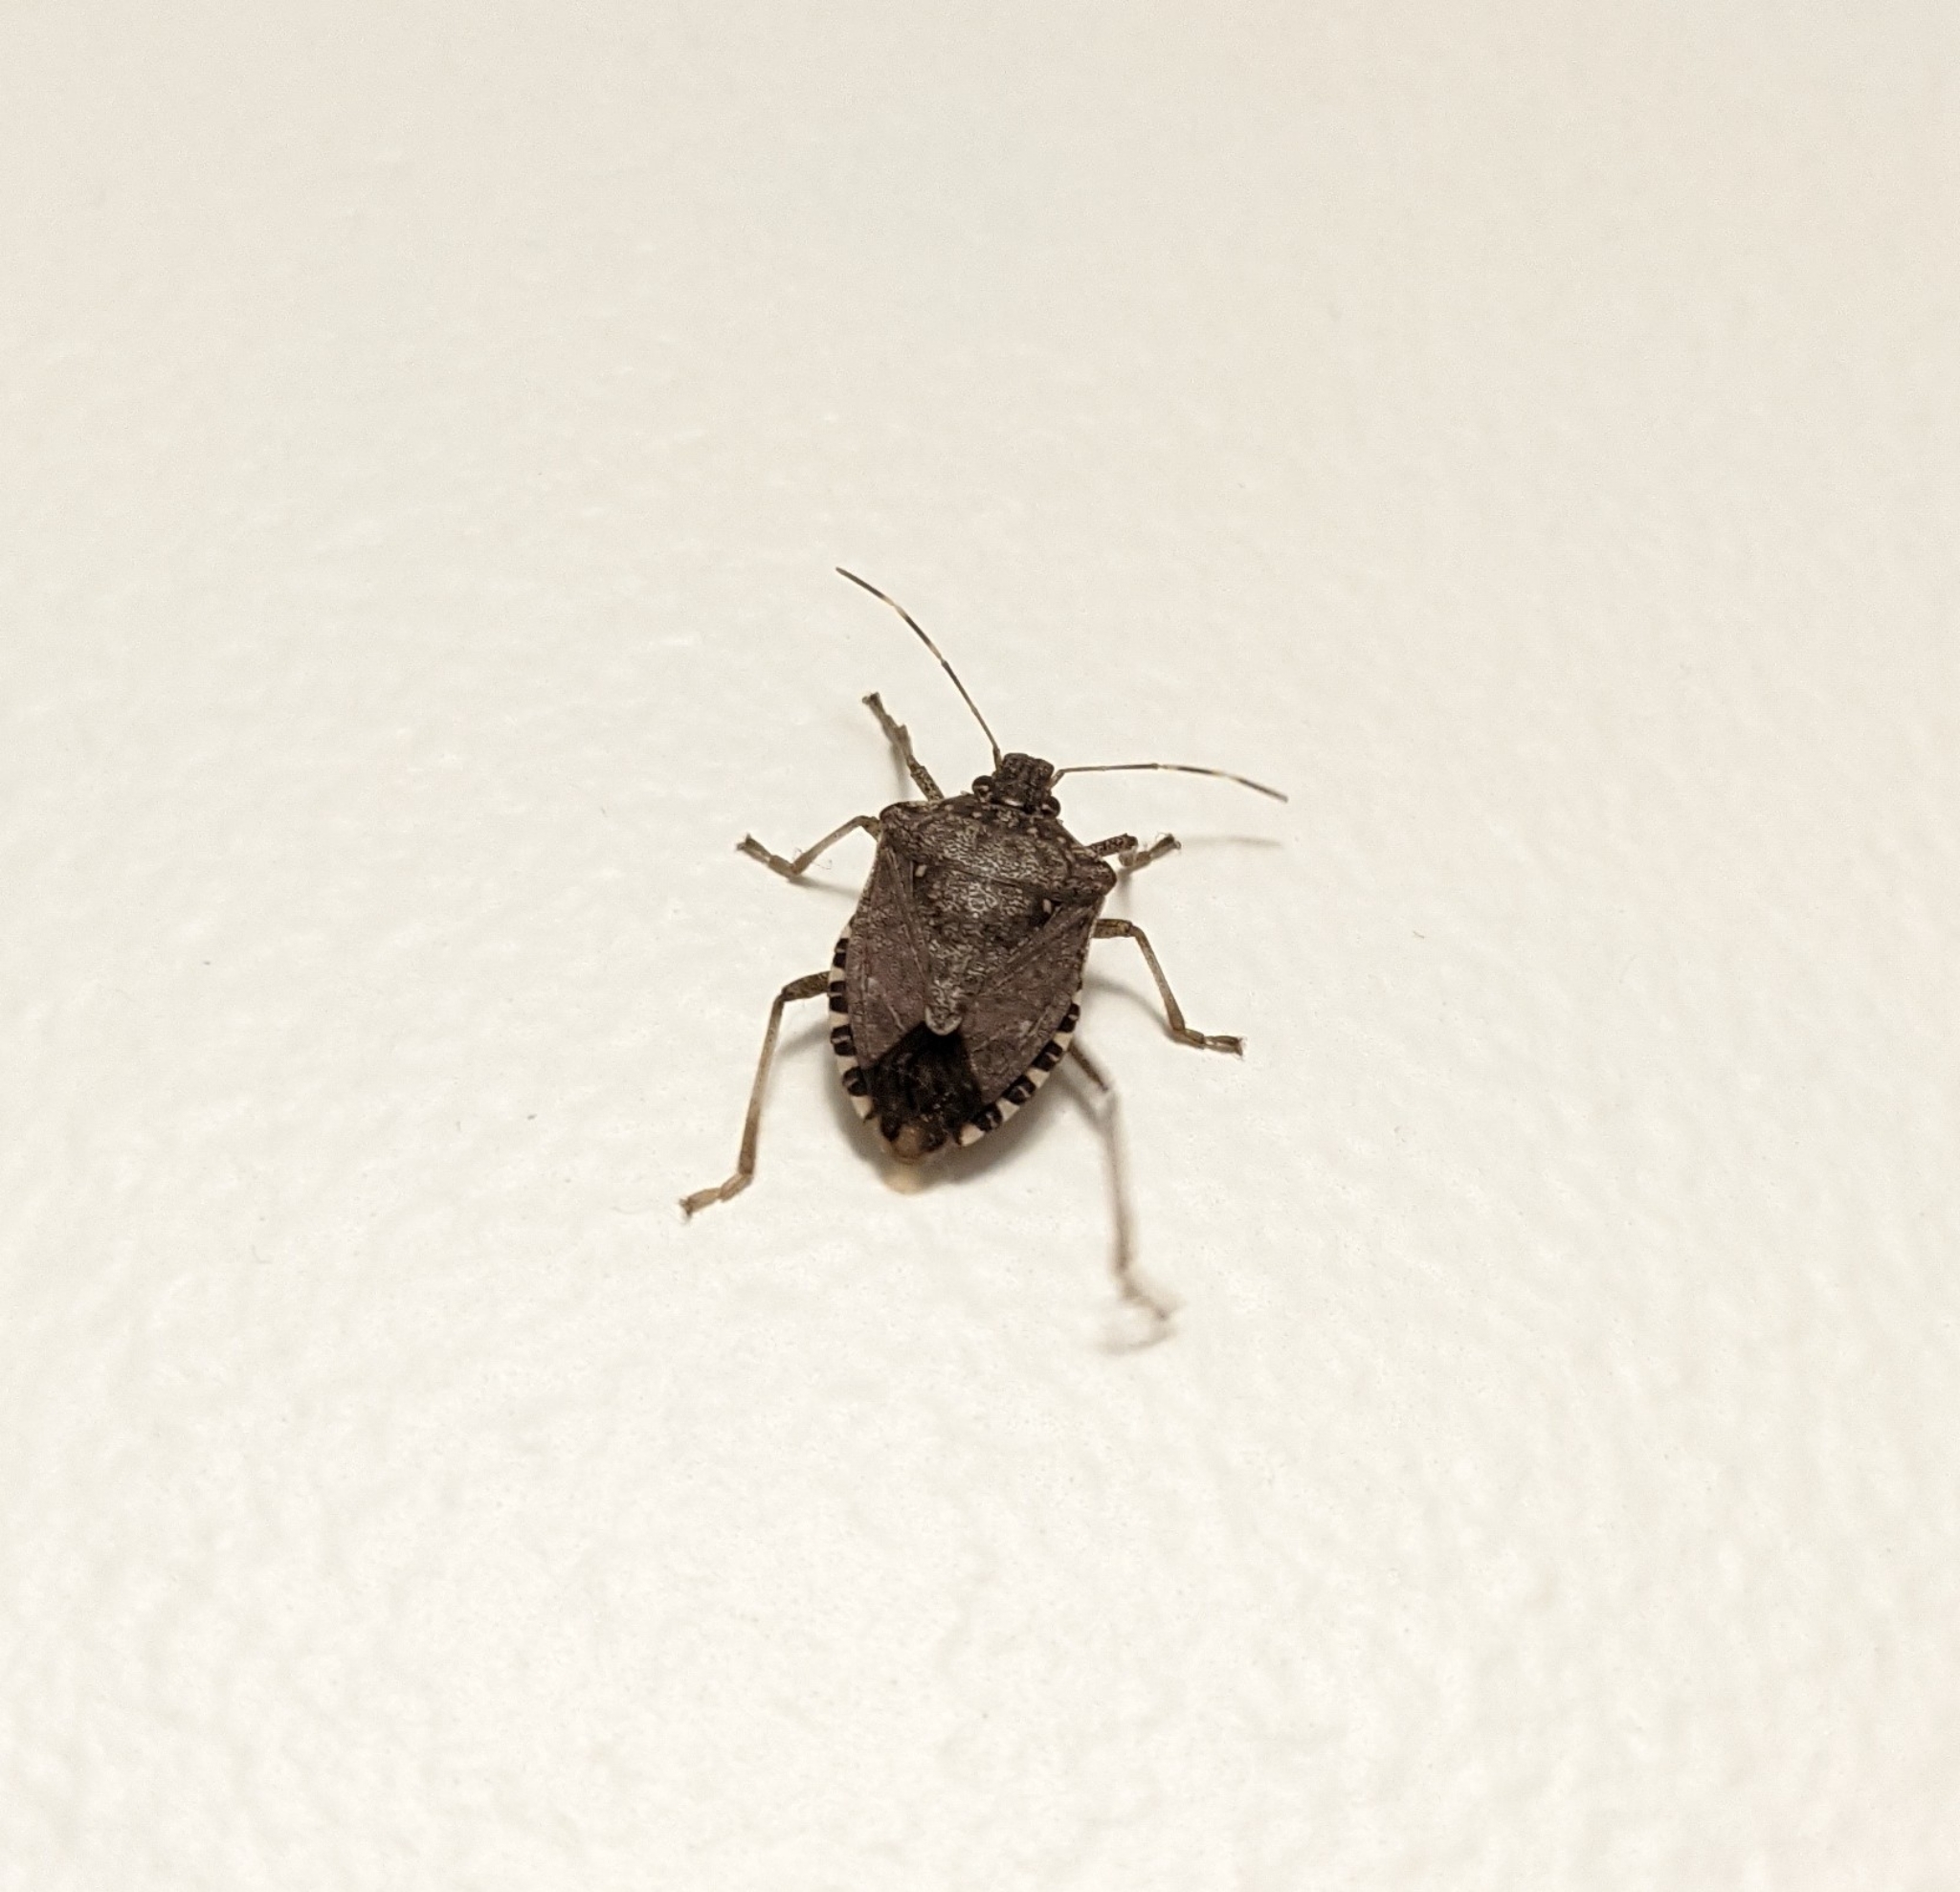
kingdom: Animalia
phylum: Arthropoda
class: Insecta
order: Hemiptera
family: Pentatomidae
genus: Halyomorpha
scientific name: Halyomorpha halys
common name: Brown marmorated stink bug
